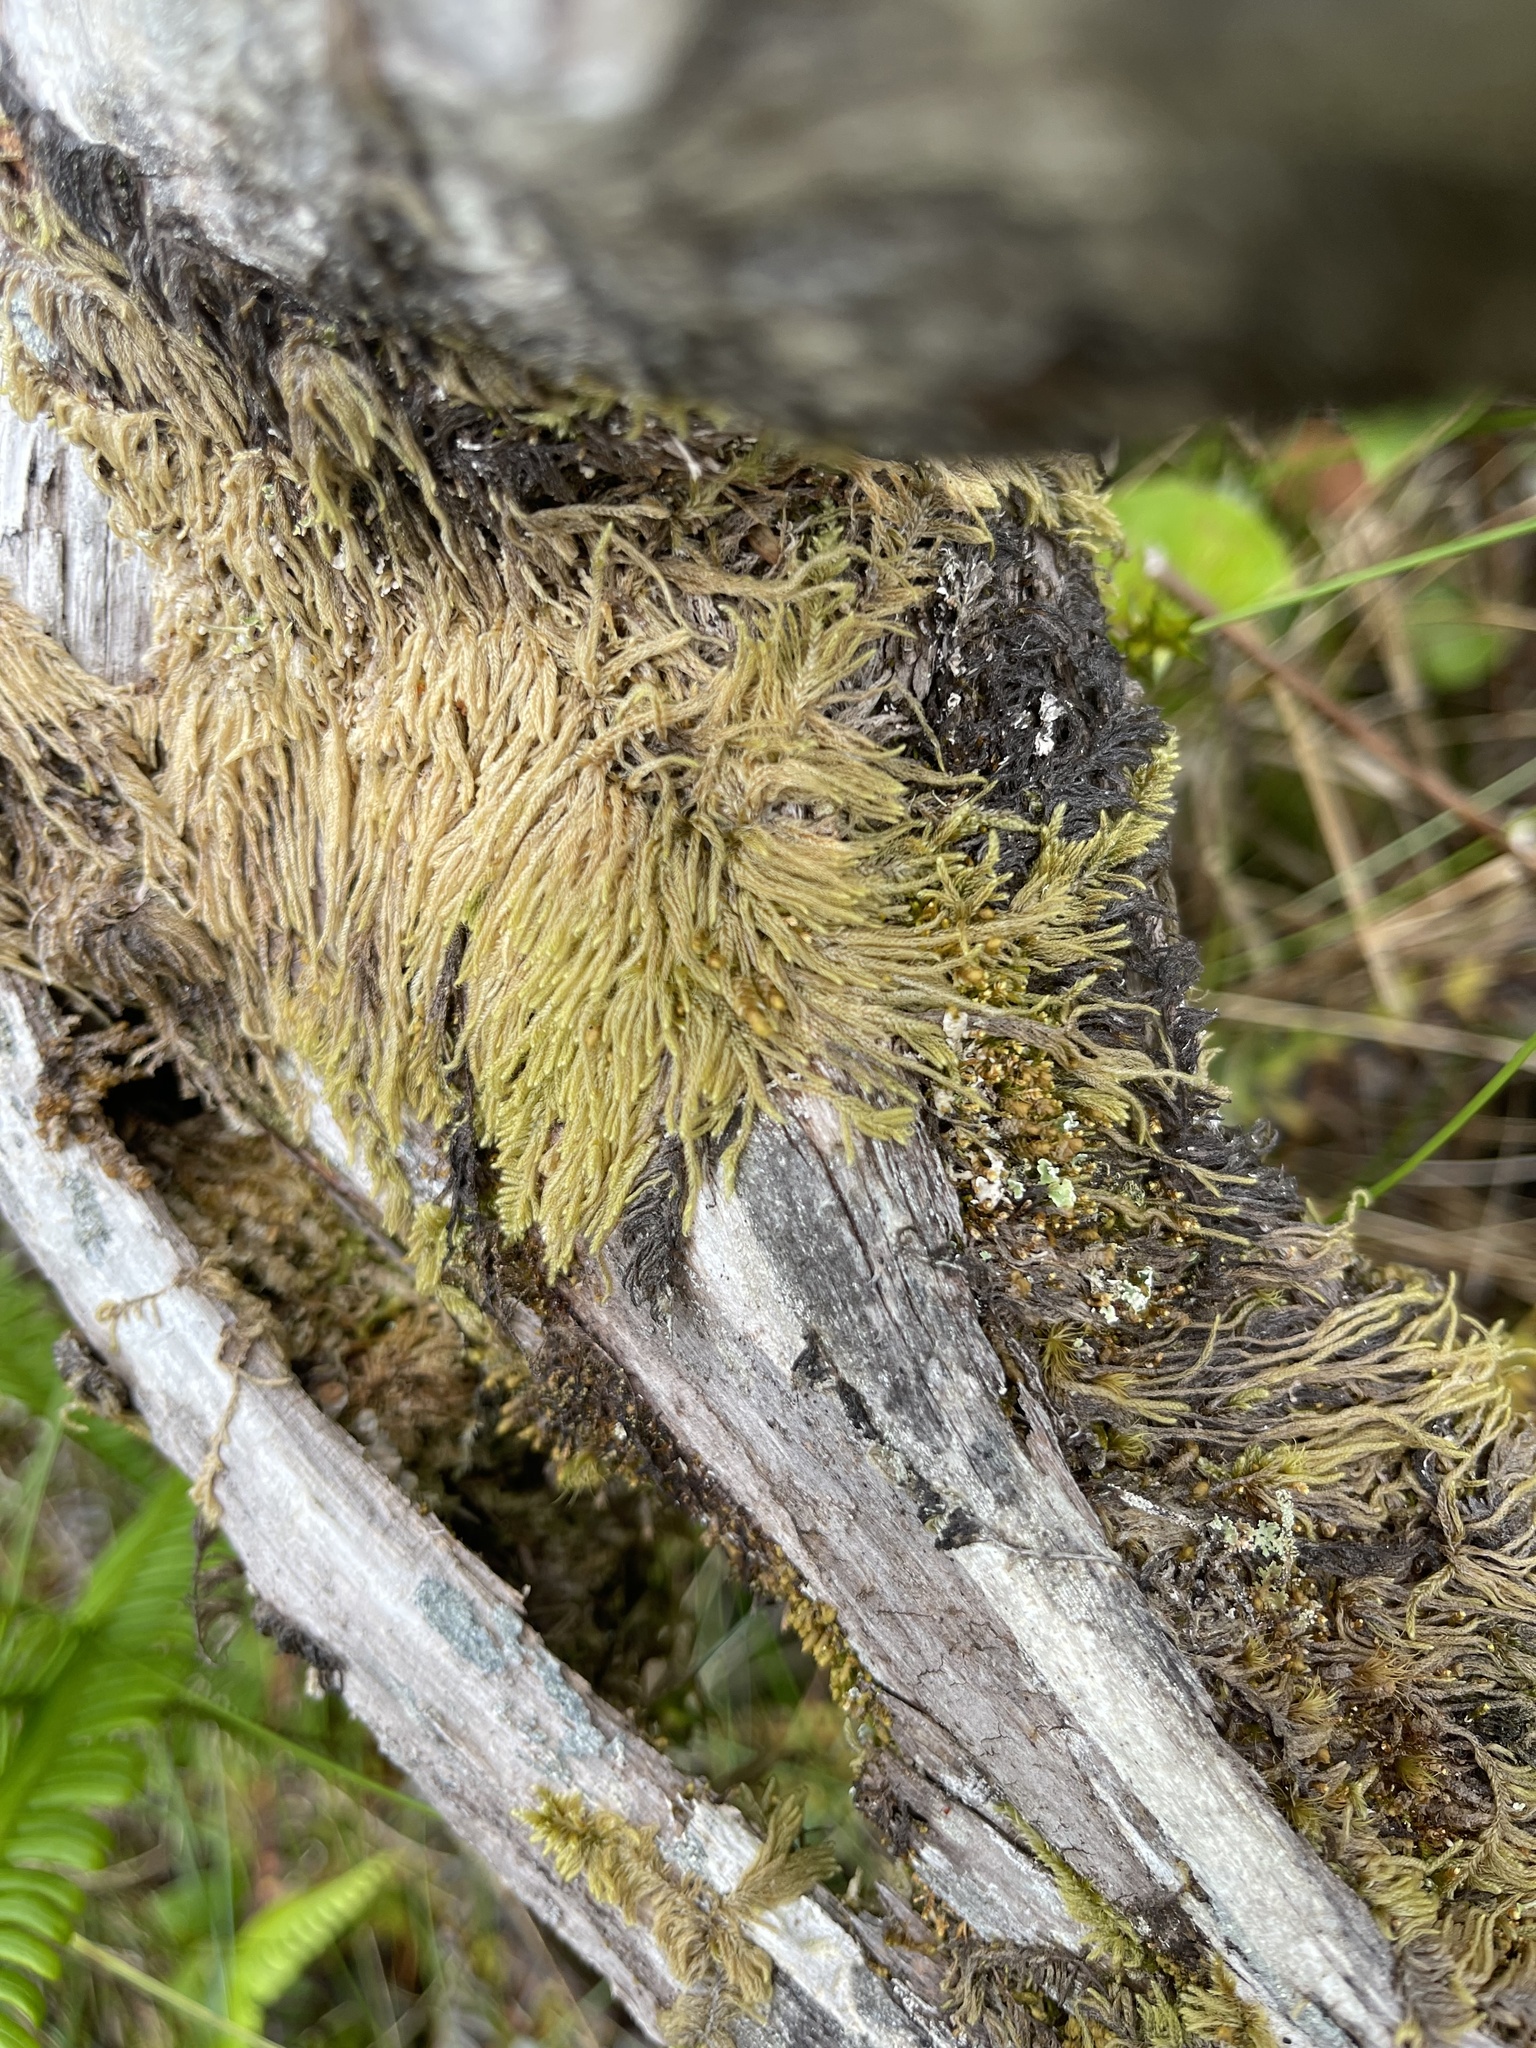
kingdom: Plantae
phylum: Bryophyta
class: Bryopsida
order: Hypnales
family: Pylaisiadelphaceae
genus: Trochophyllohypnum
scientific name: Trochophyllohypnum circinale
